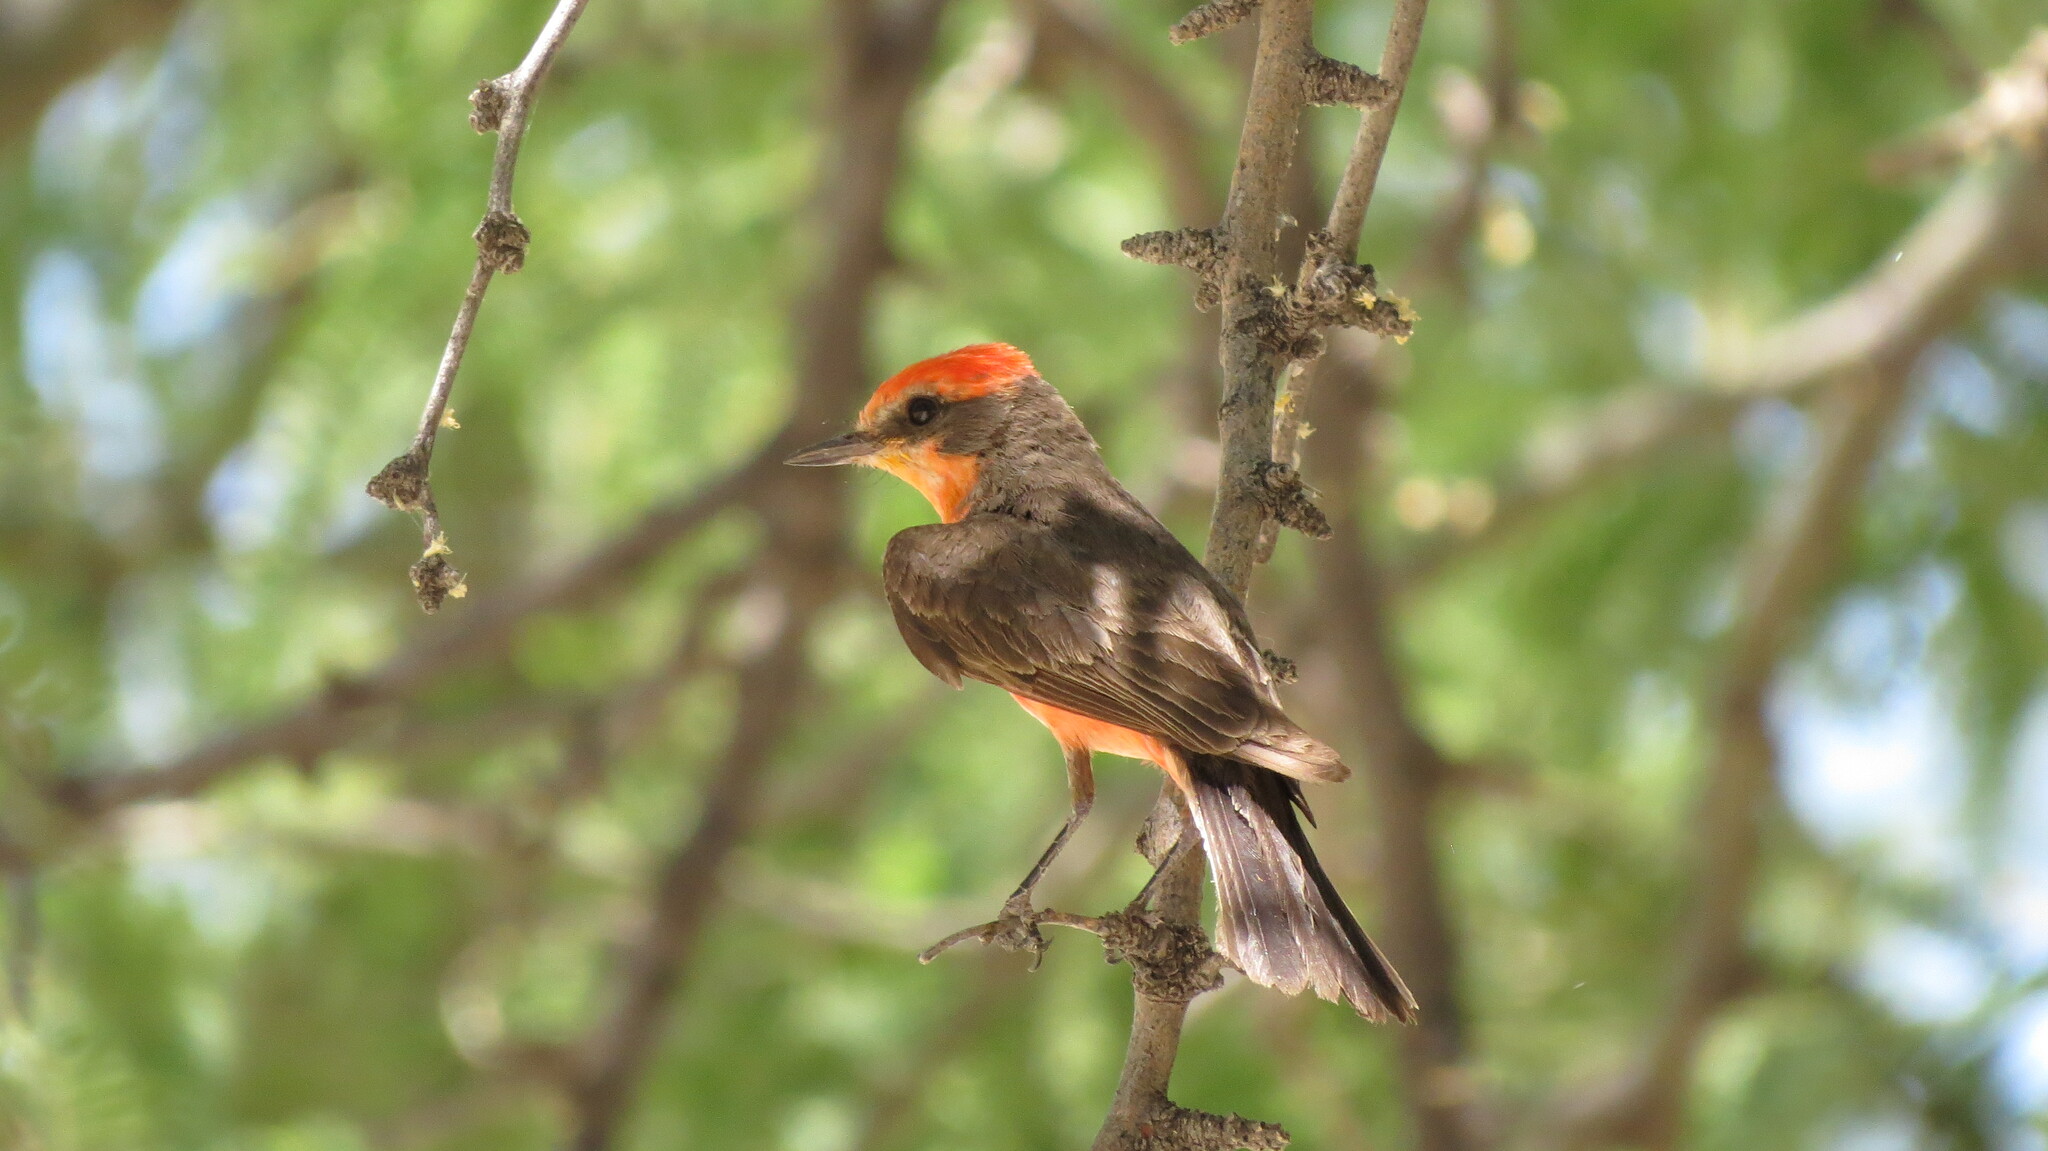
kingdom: Animalia
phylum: Chordata
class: Aves
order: Passeriformes
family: Tyrannidae
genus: Pyrocephalus
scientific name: Pyrocephalus rubinus
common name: Vermilion flycatcher
